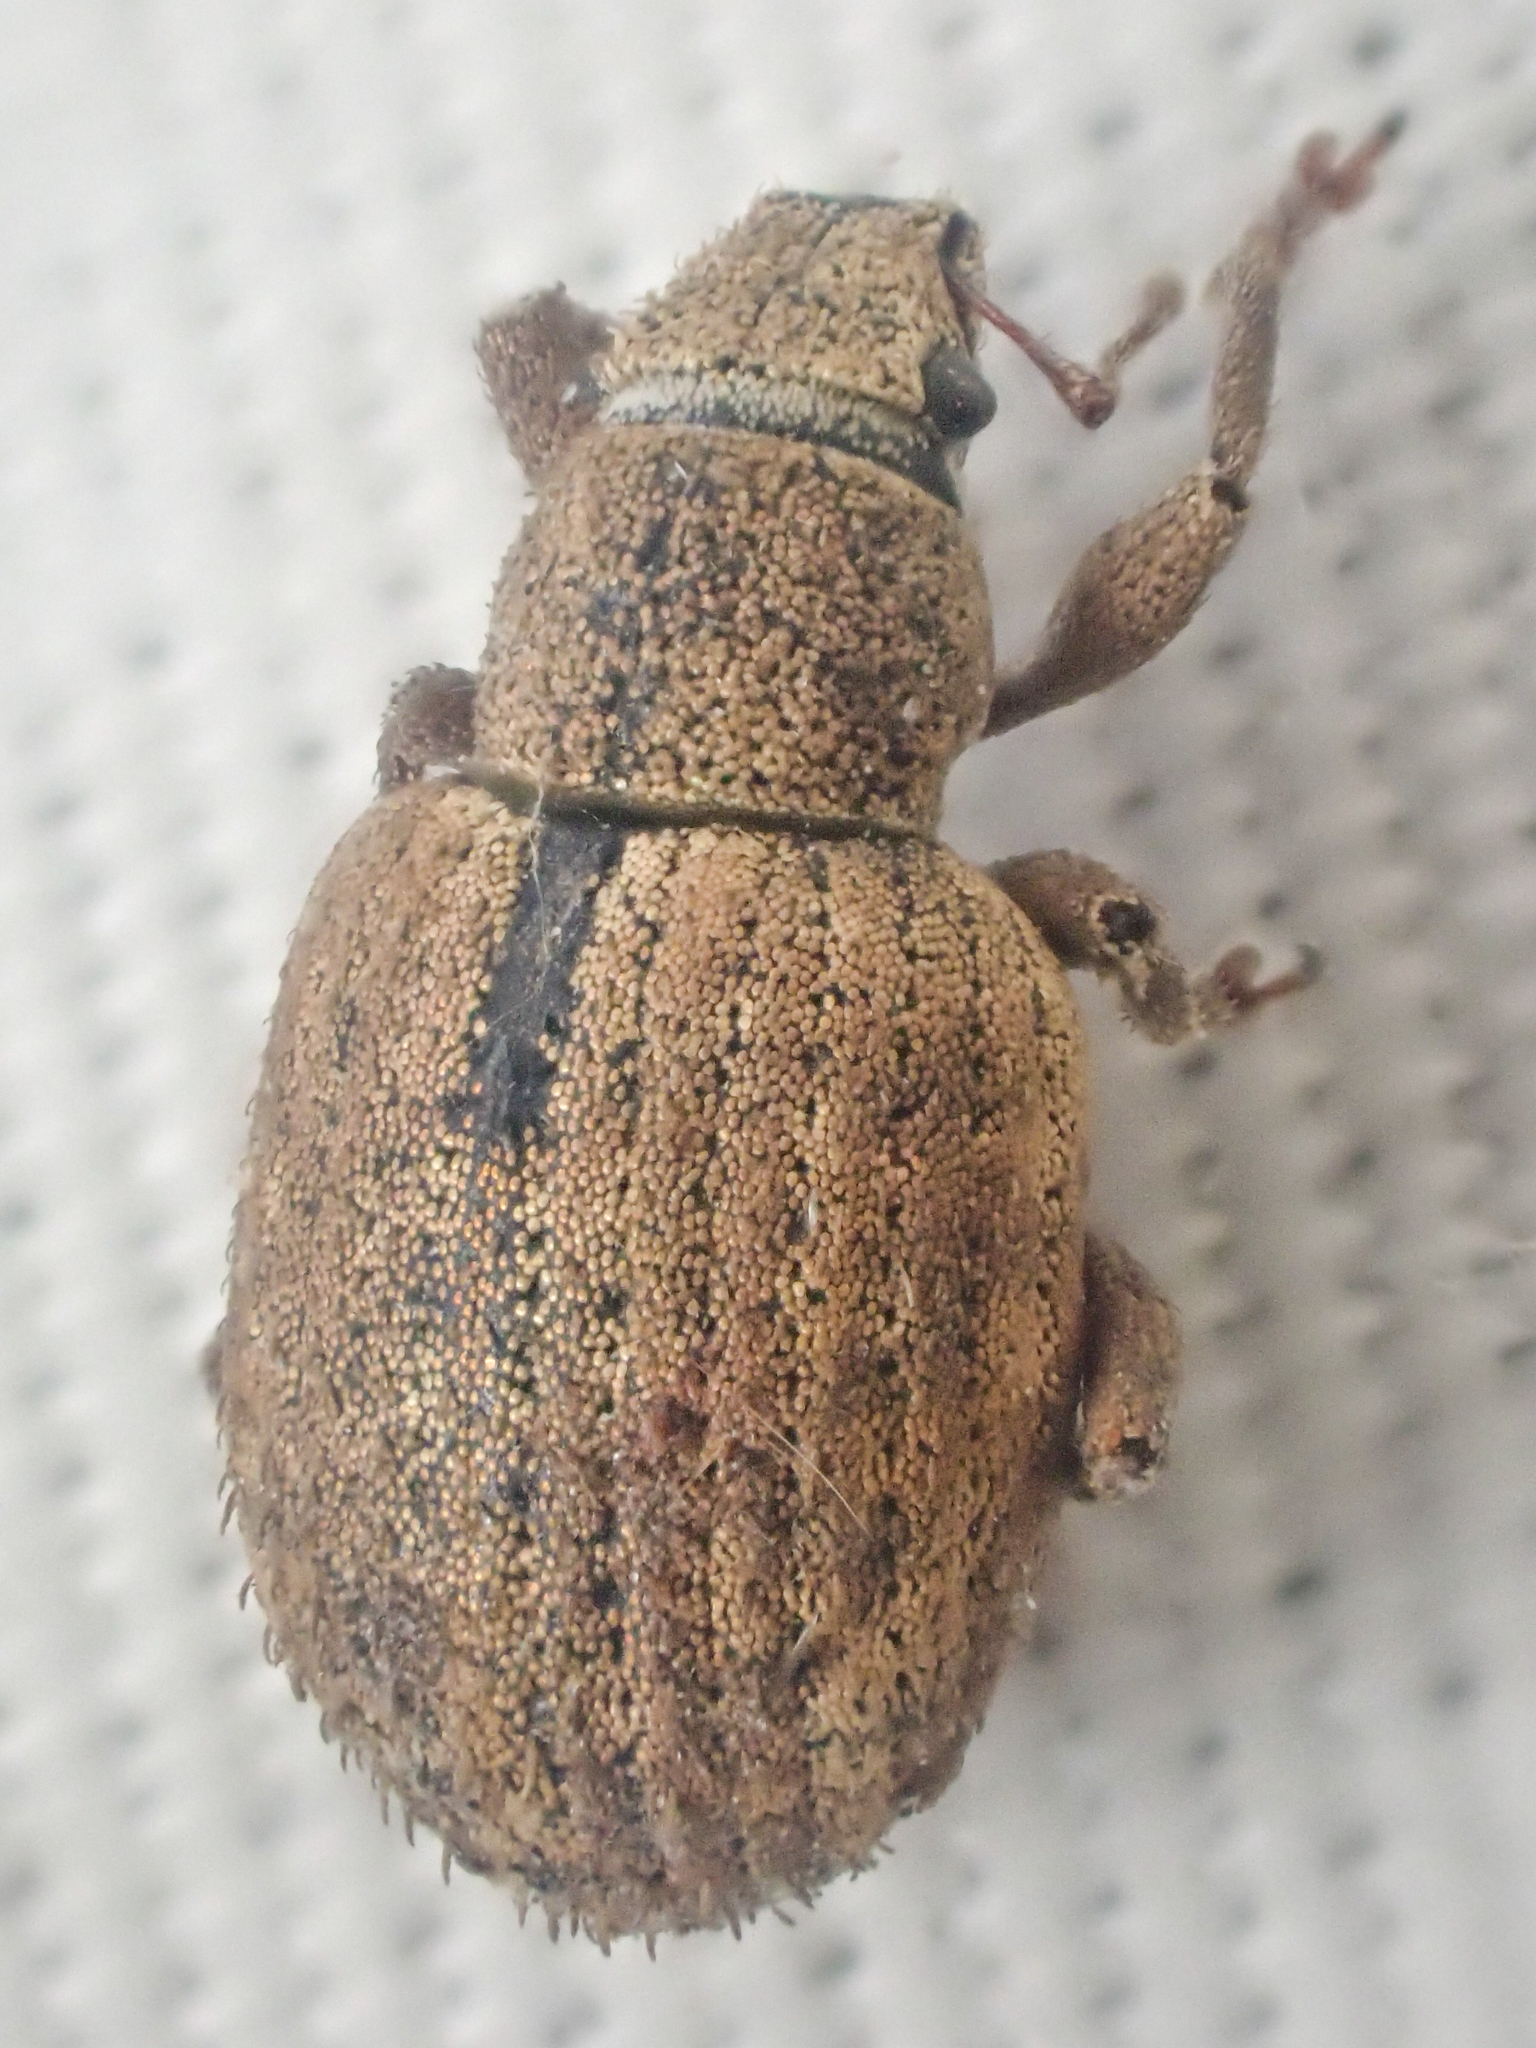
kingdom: Animalia
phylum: Arthropoda
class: Insecta
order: Coleoptera
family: Curculionidae
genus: Strophosoma
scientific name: Strophosoma melanogrammum
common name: Weevil
